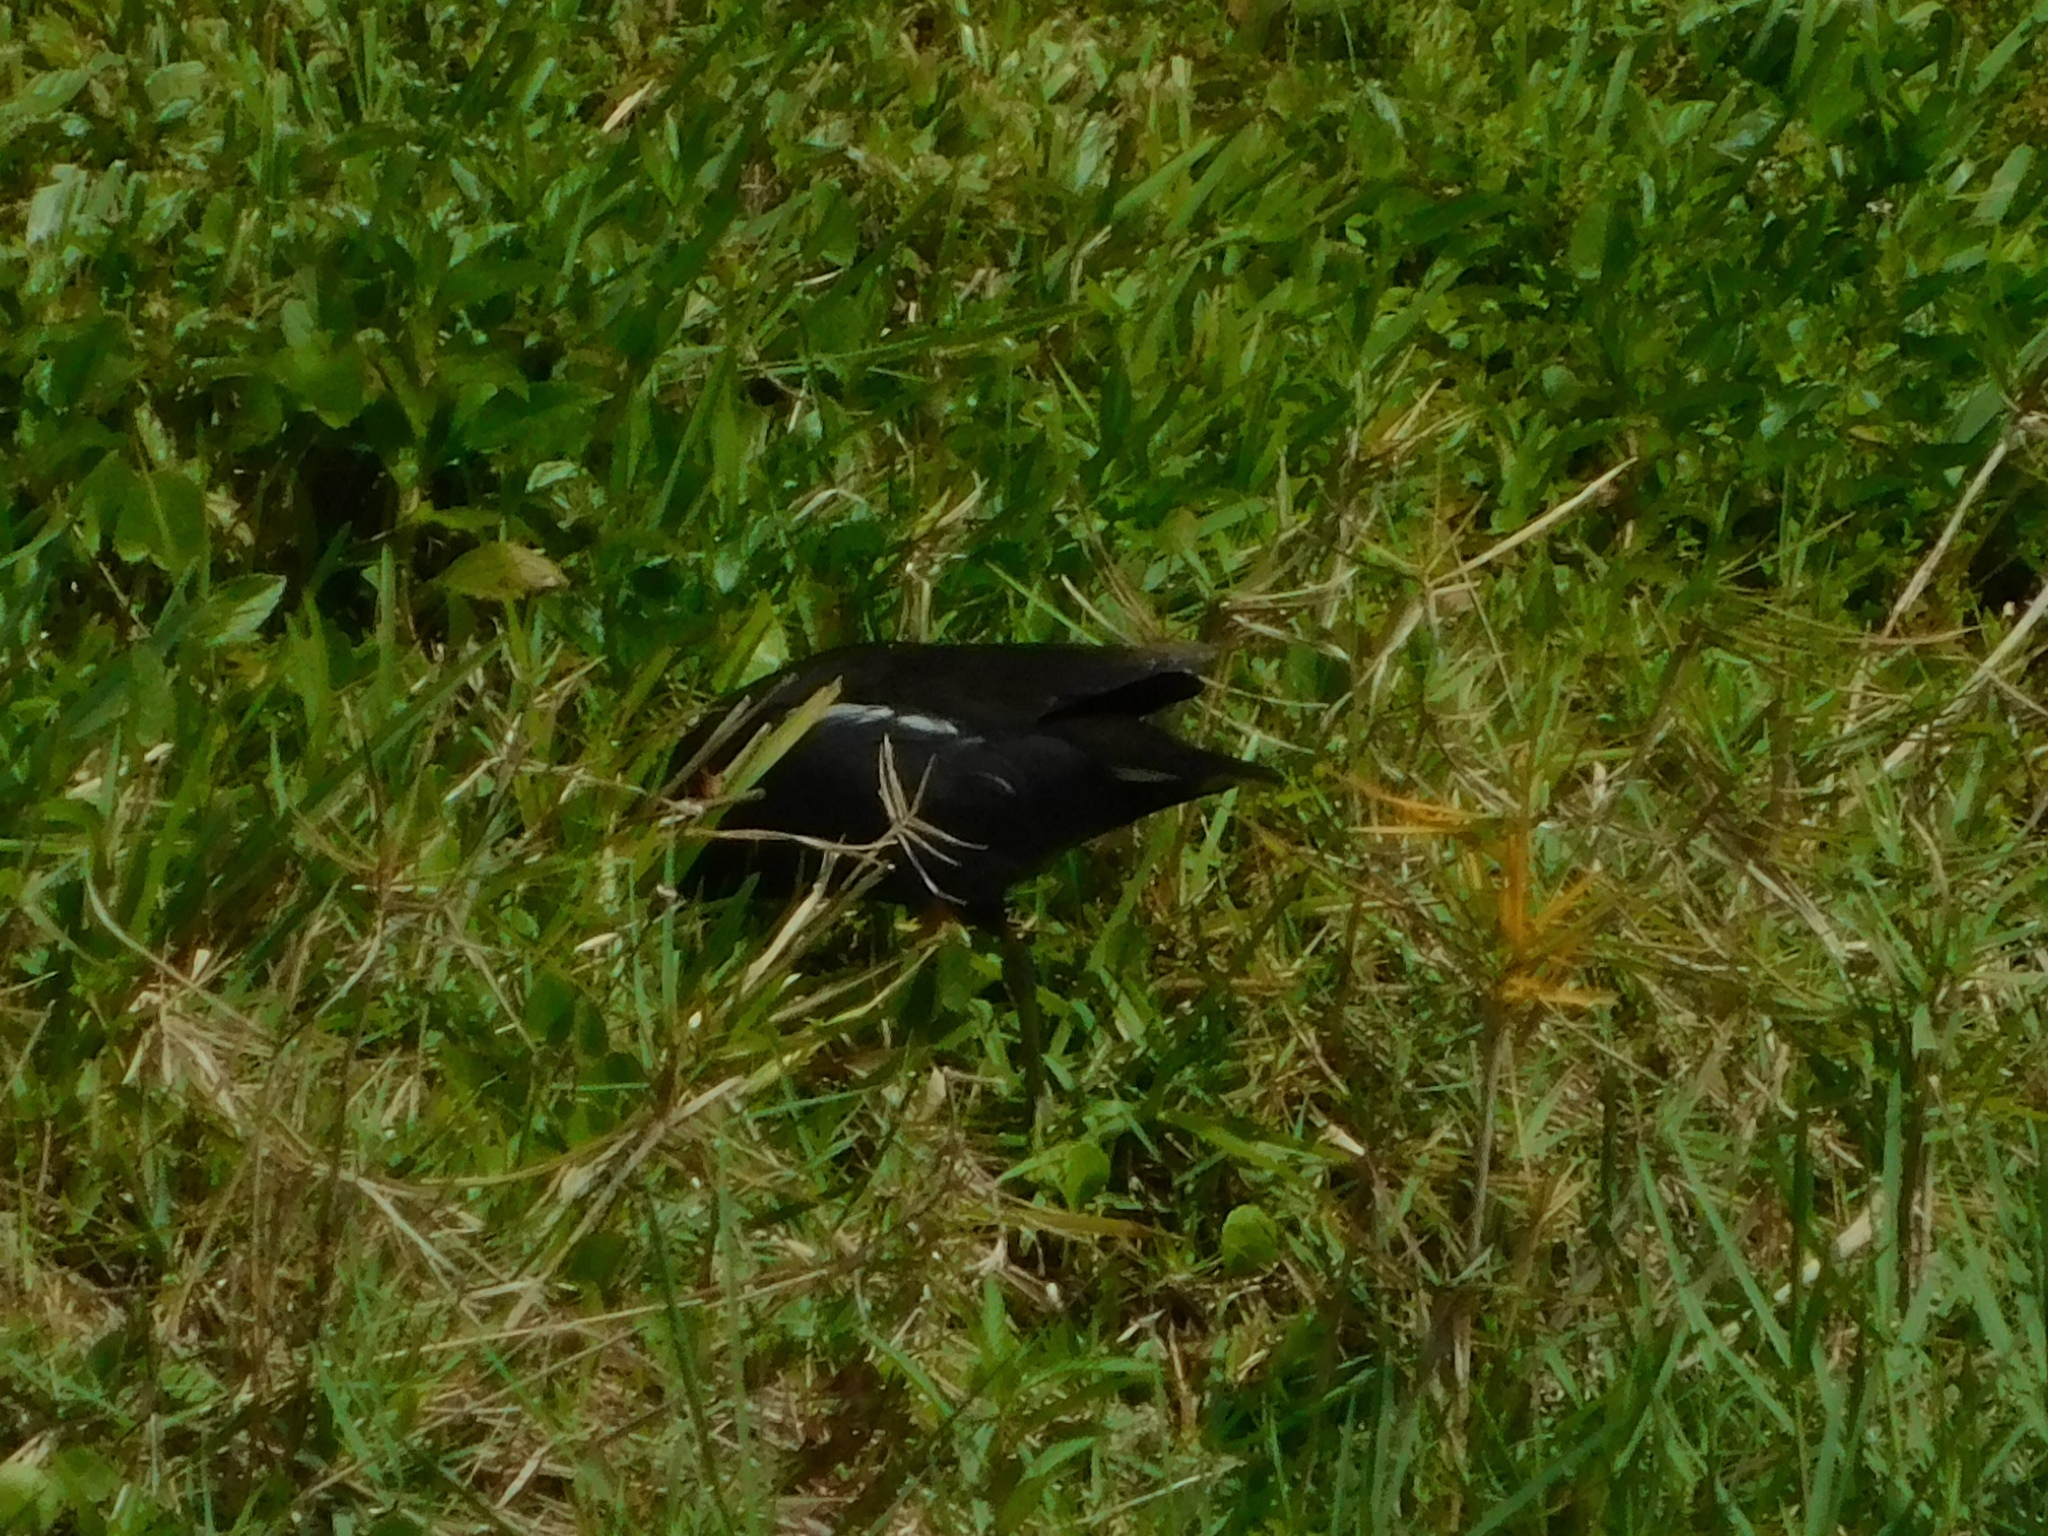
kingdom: Animalia
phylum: Chordata
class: Aves
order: Gruiformes
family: Rallidae
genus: Gallinula
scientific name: Gallinula chloropus
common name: Common moorhen
